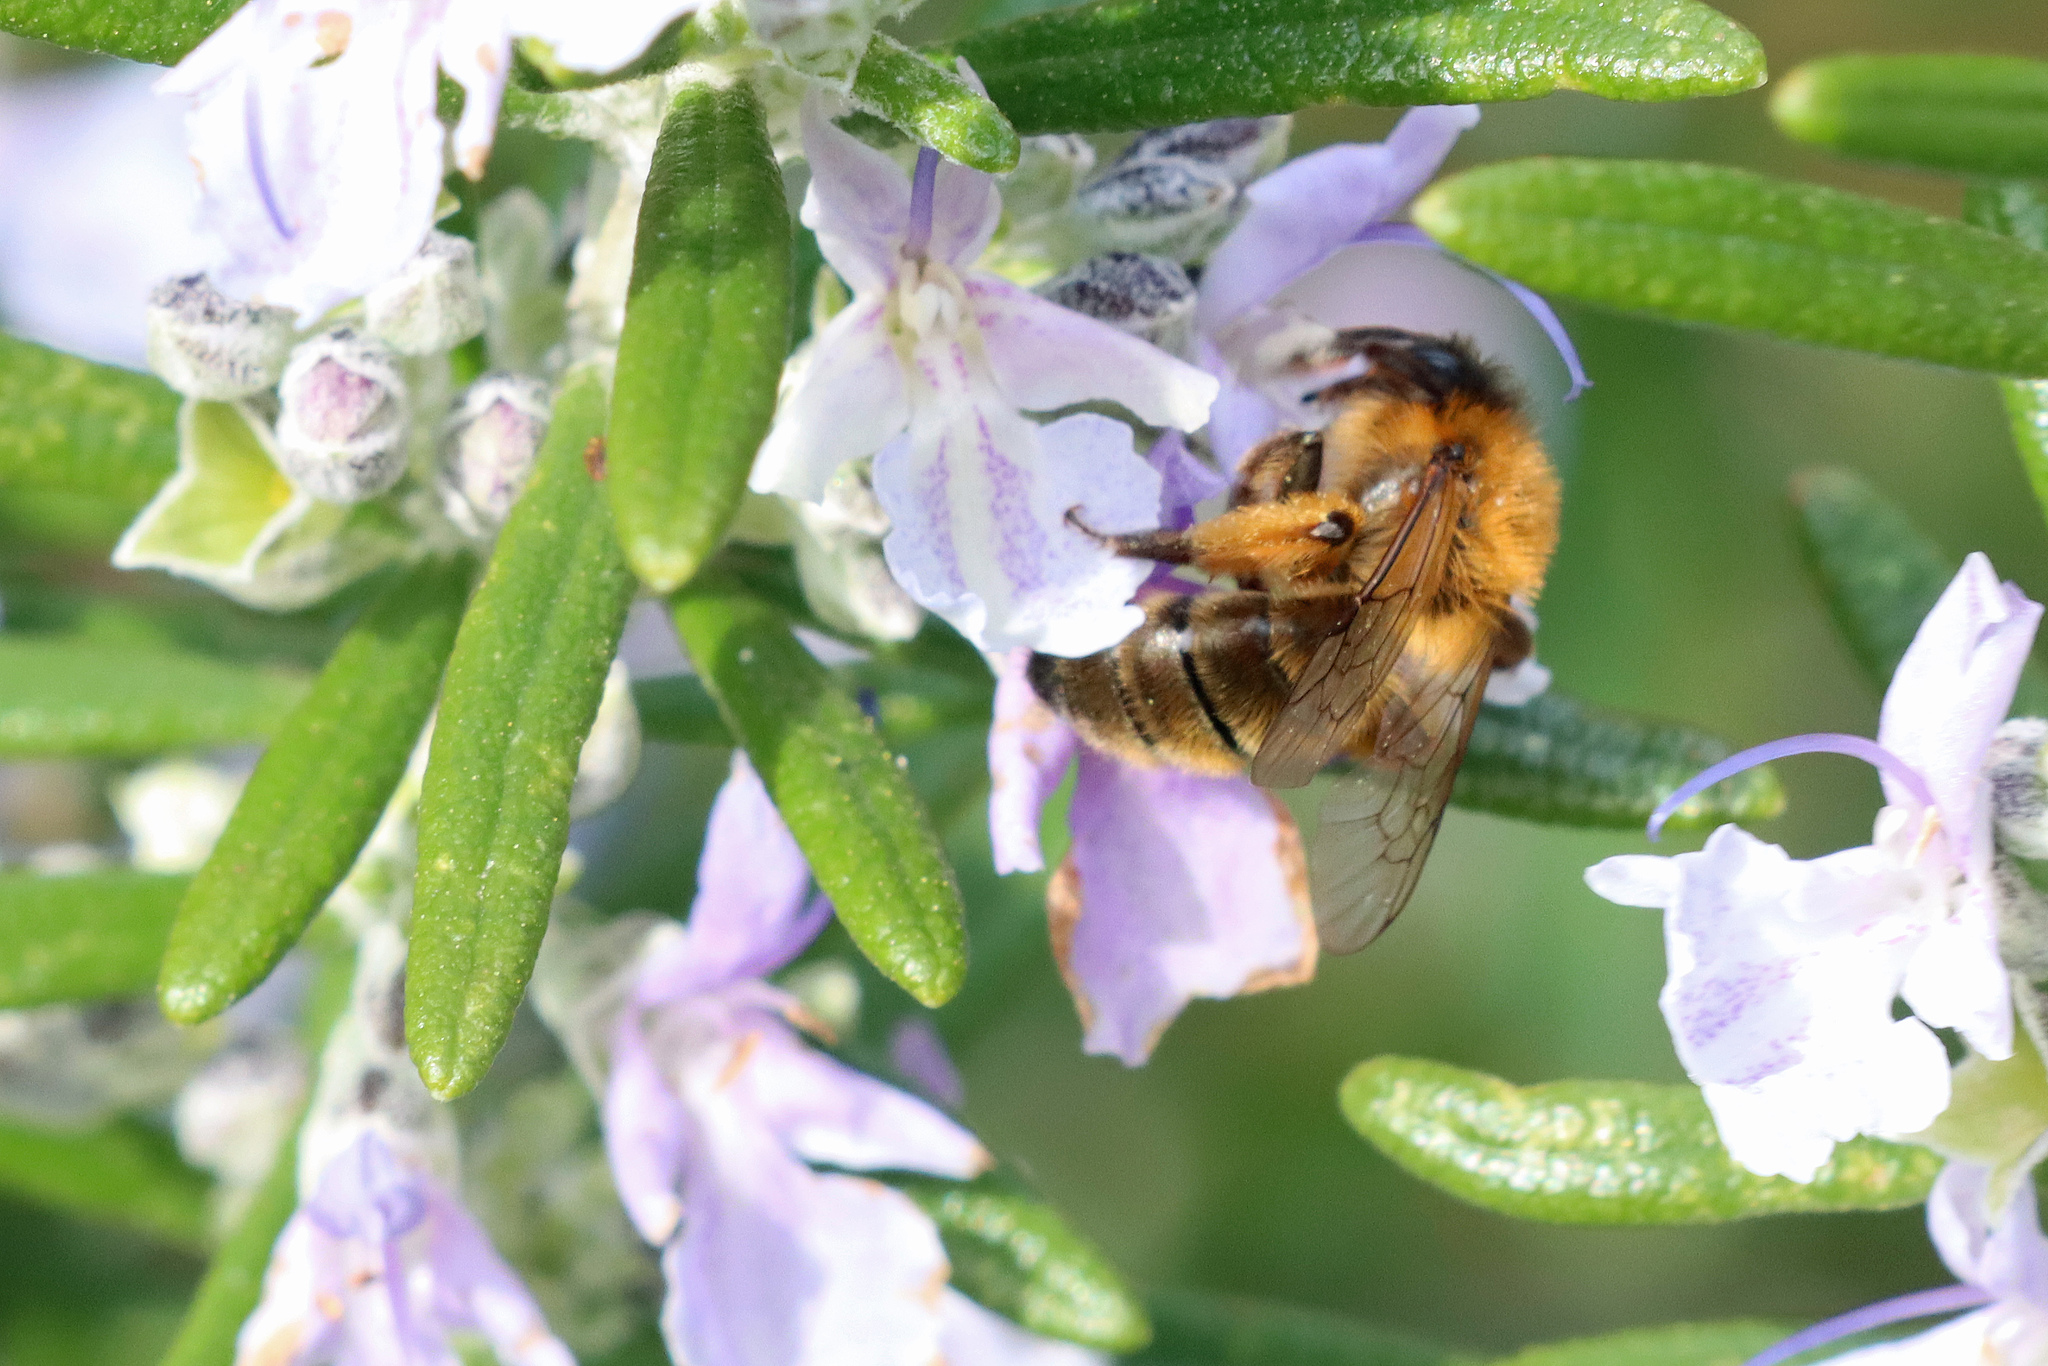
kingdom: Animalia
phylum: Arthropoda
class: Insecta
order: Hymenoptera
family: Andrenidae
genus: Andrena
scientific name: Andrena nigroaenea
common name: Buffish mining bee
